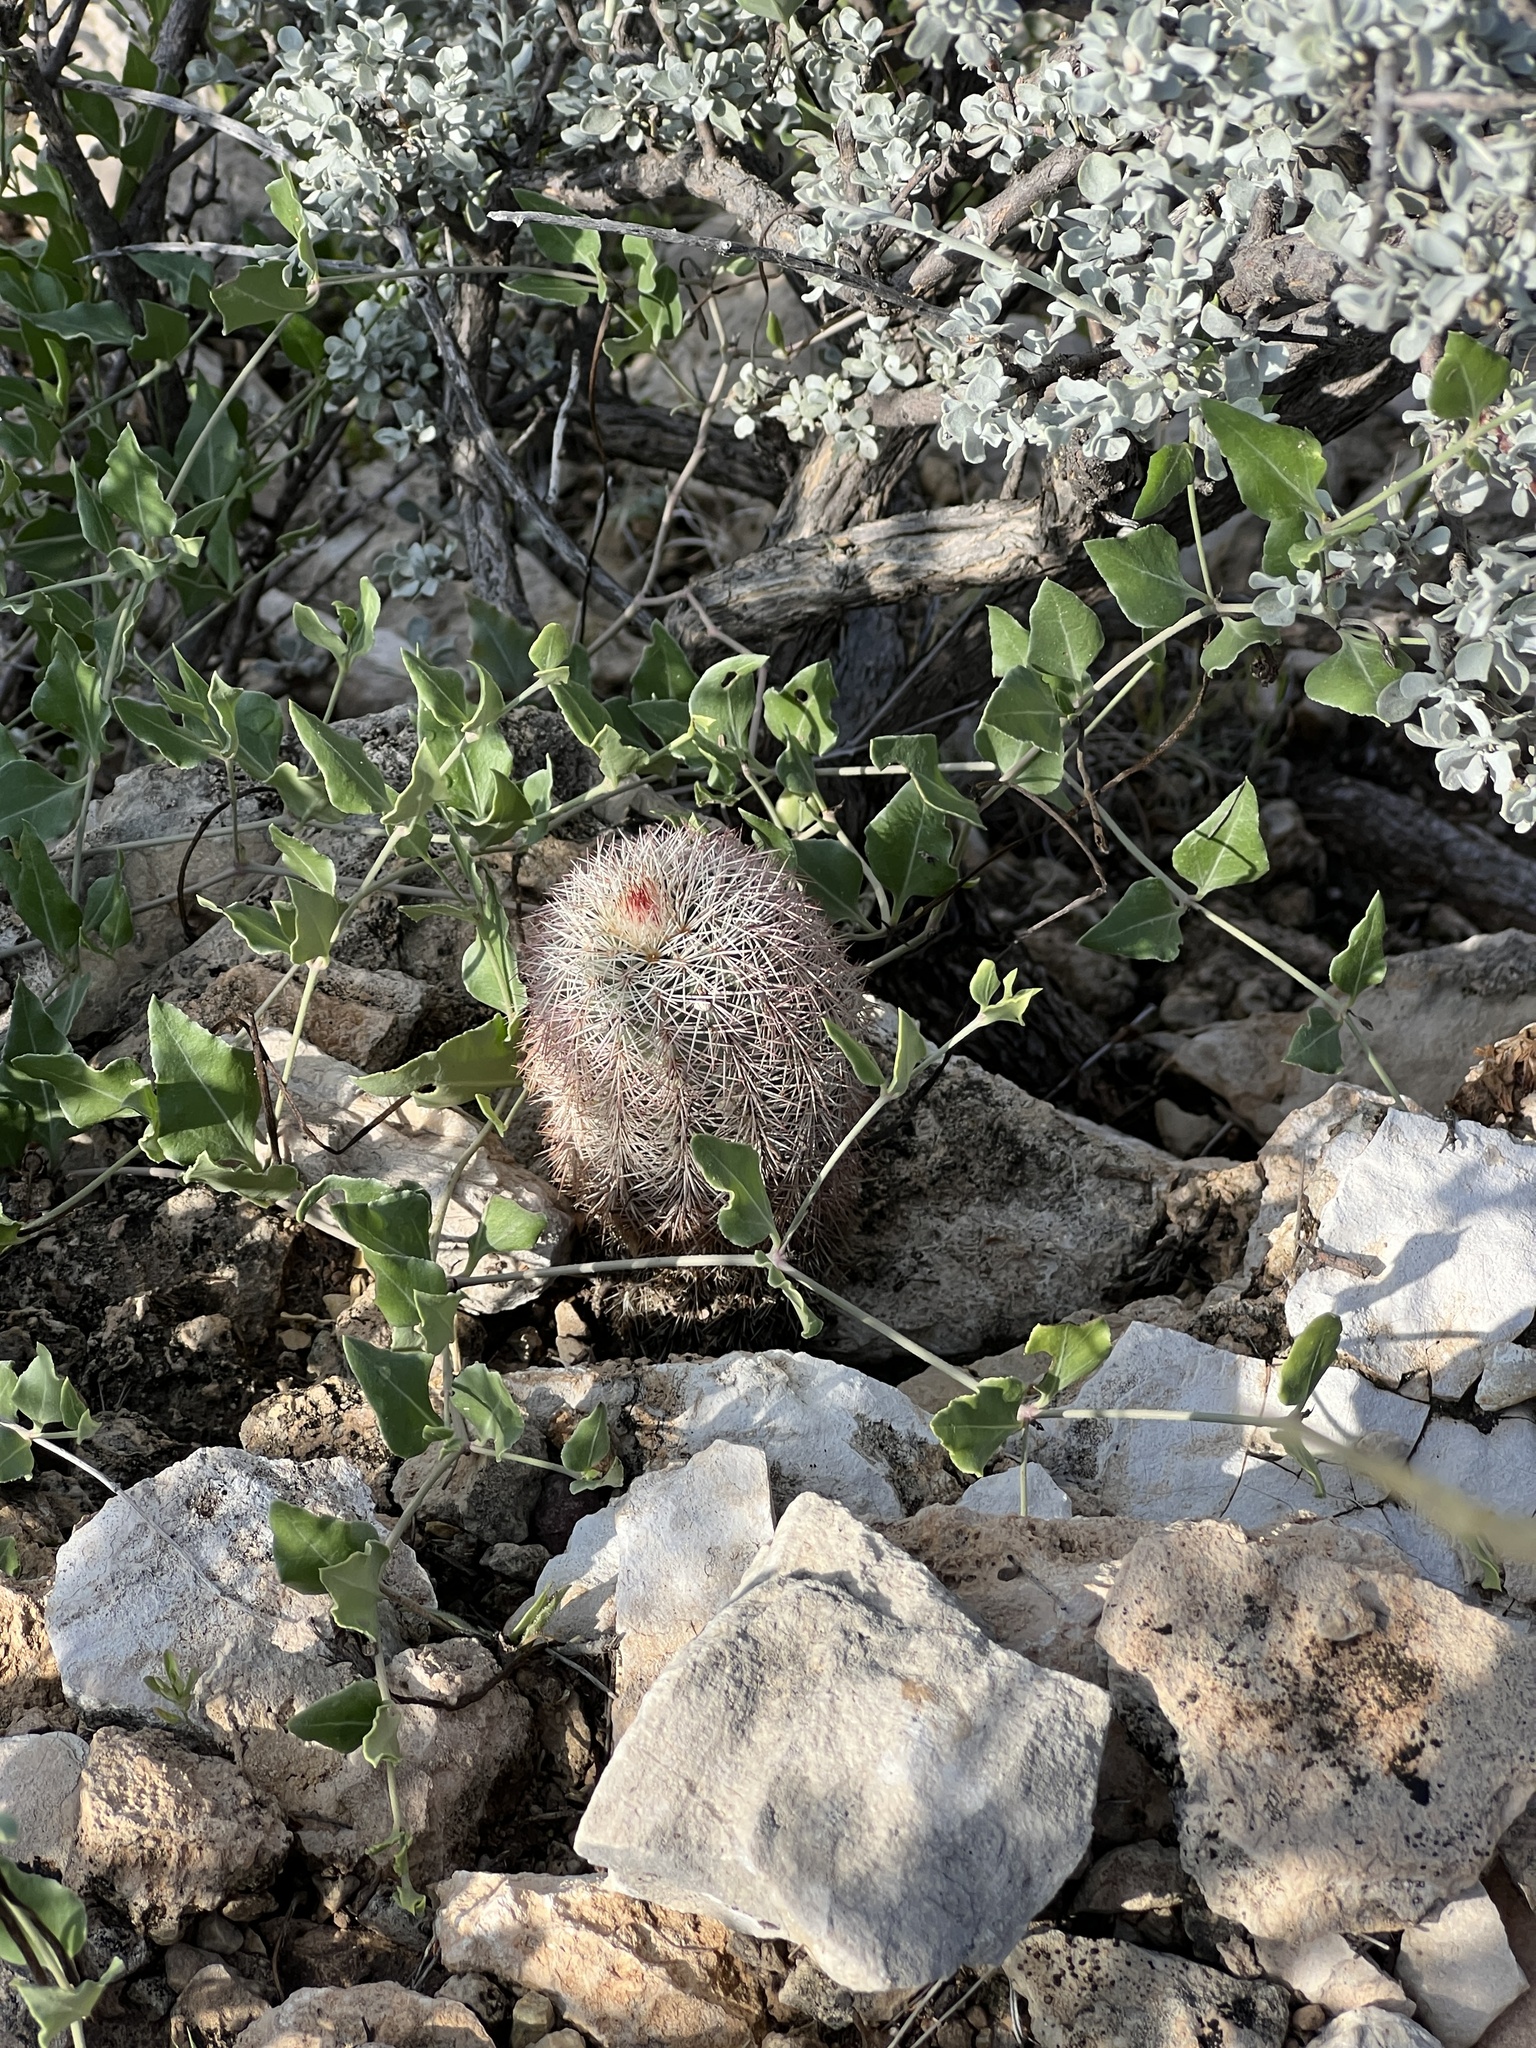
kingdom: Plantae
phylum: Tracheophyta
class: Magnoliopsida
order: Caryophyllales
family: Cactaceae
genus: Echinocereus
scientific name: Echinocereus dasyacanthus
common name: Spiny hedgehog cactus
